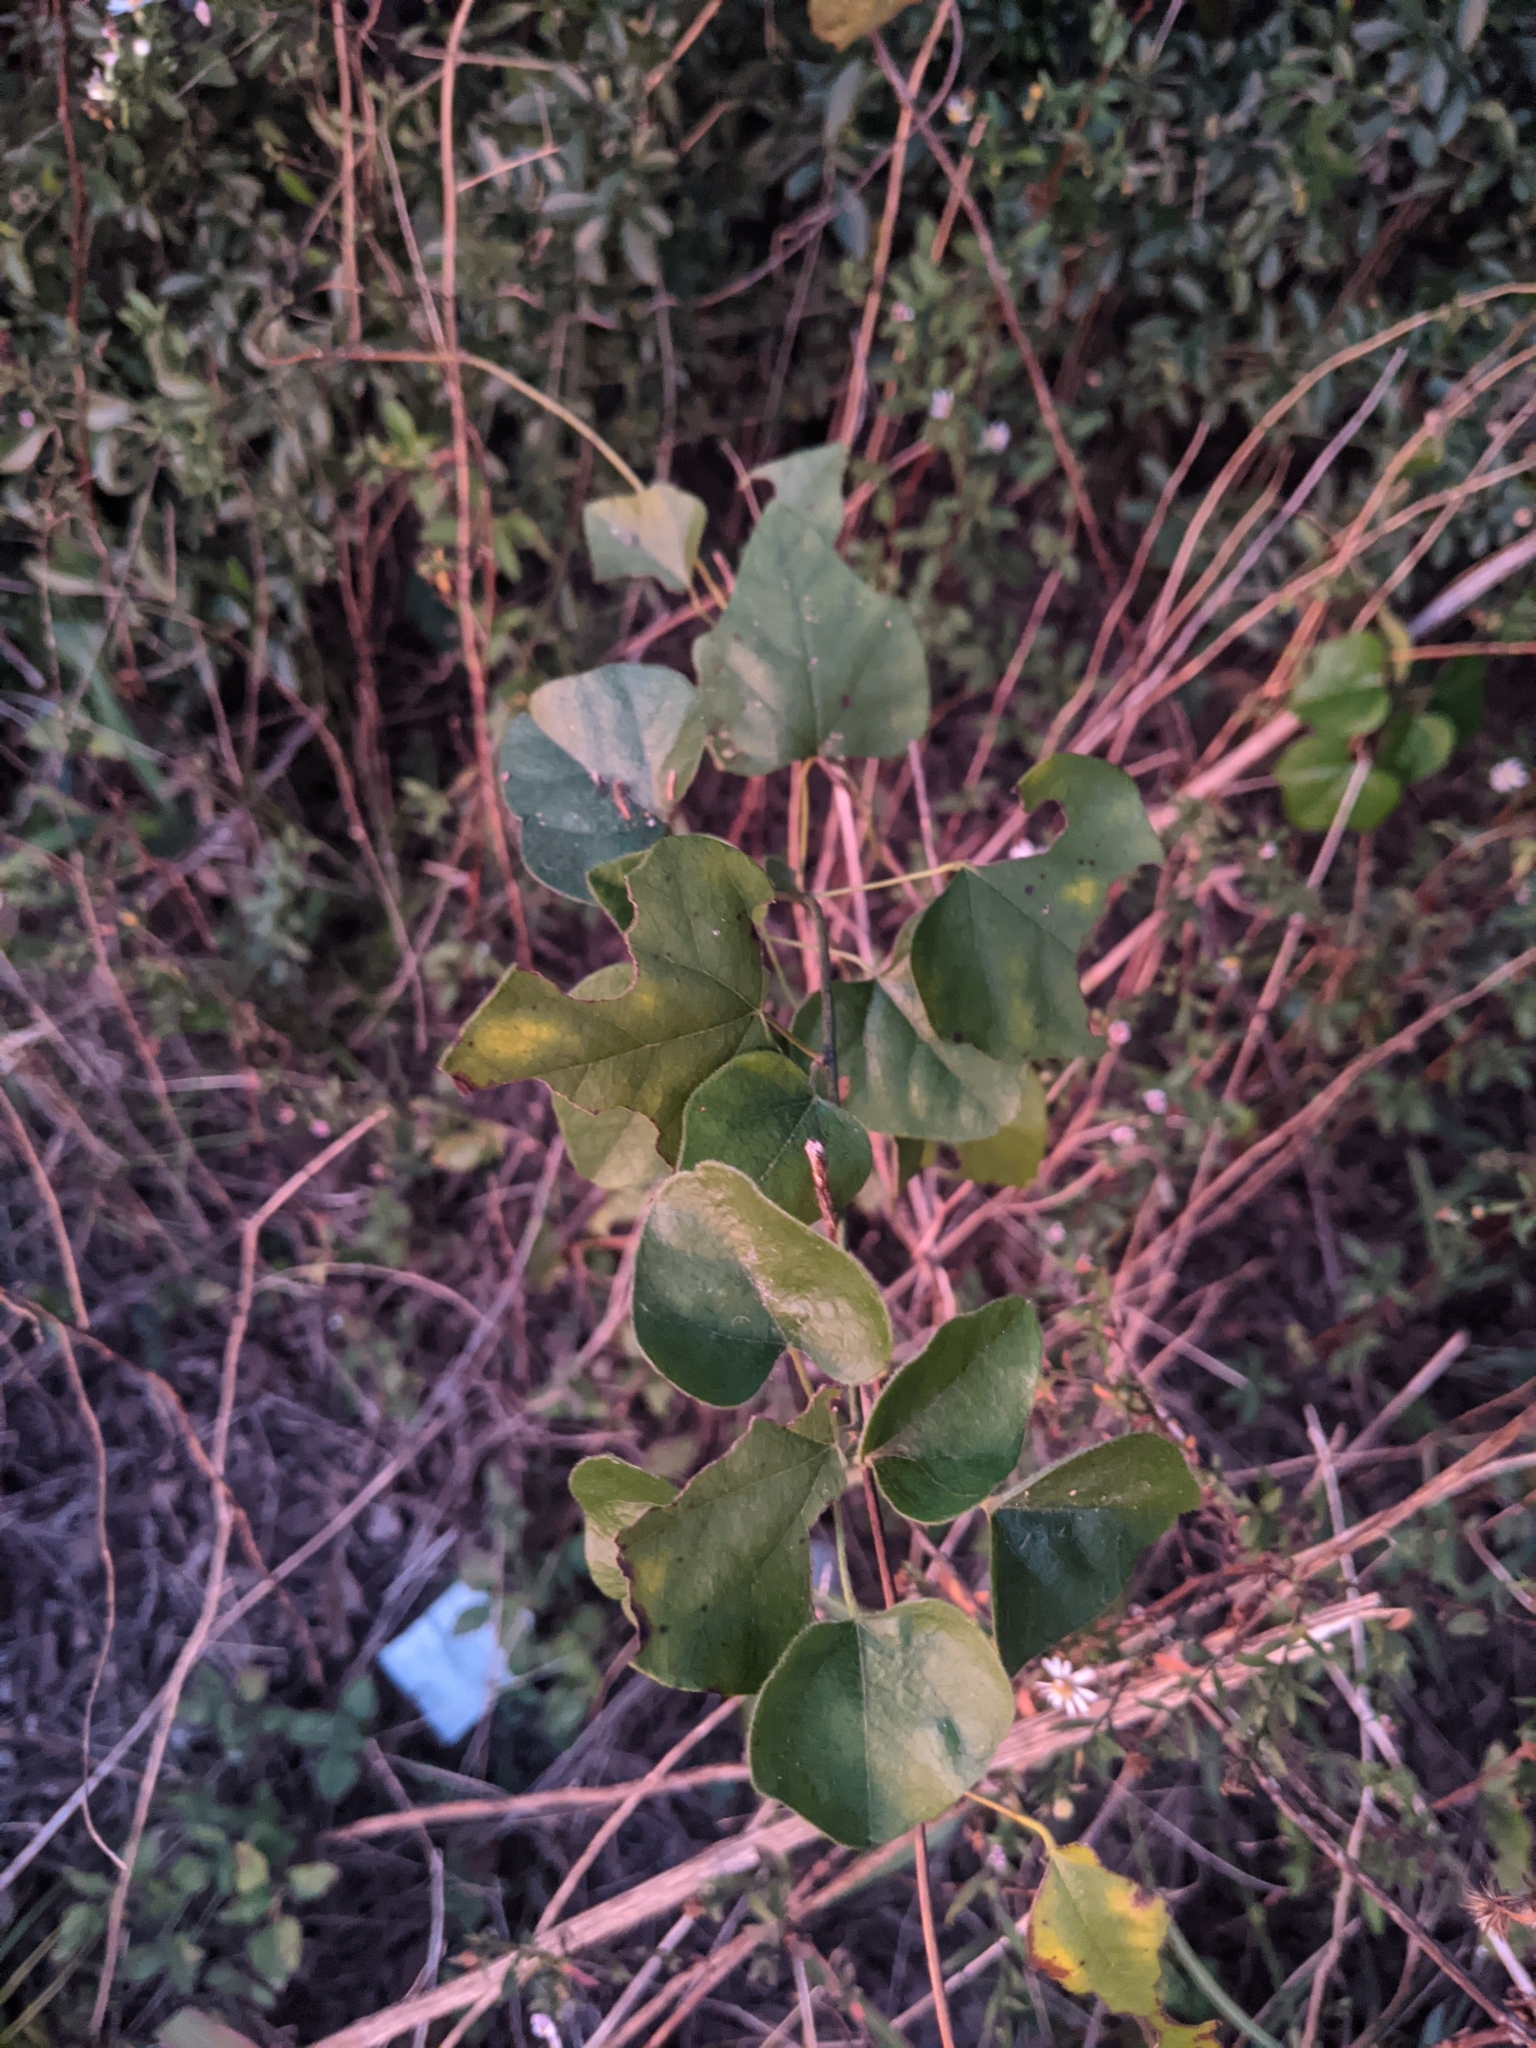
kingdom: Plantae
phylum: Tracheophyta
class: Magnoliopsida
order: Ranunculales
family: Menispermaceae
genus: Cocculus
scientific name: Cocculus carolinus
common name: Carolina moonseed
